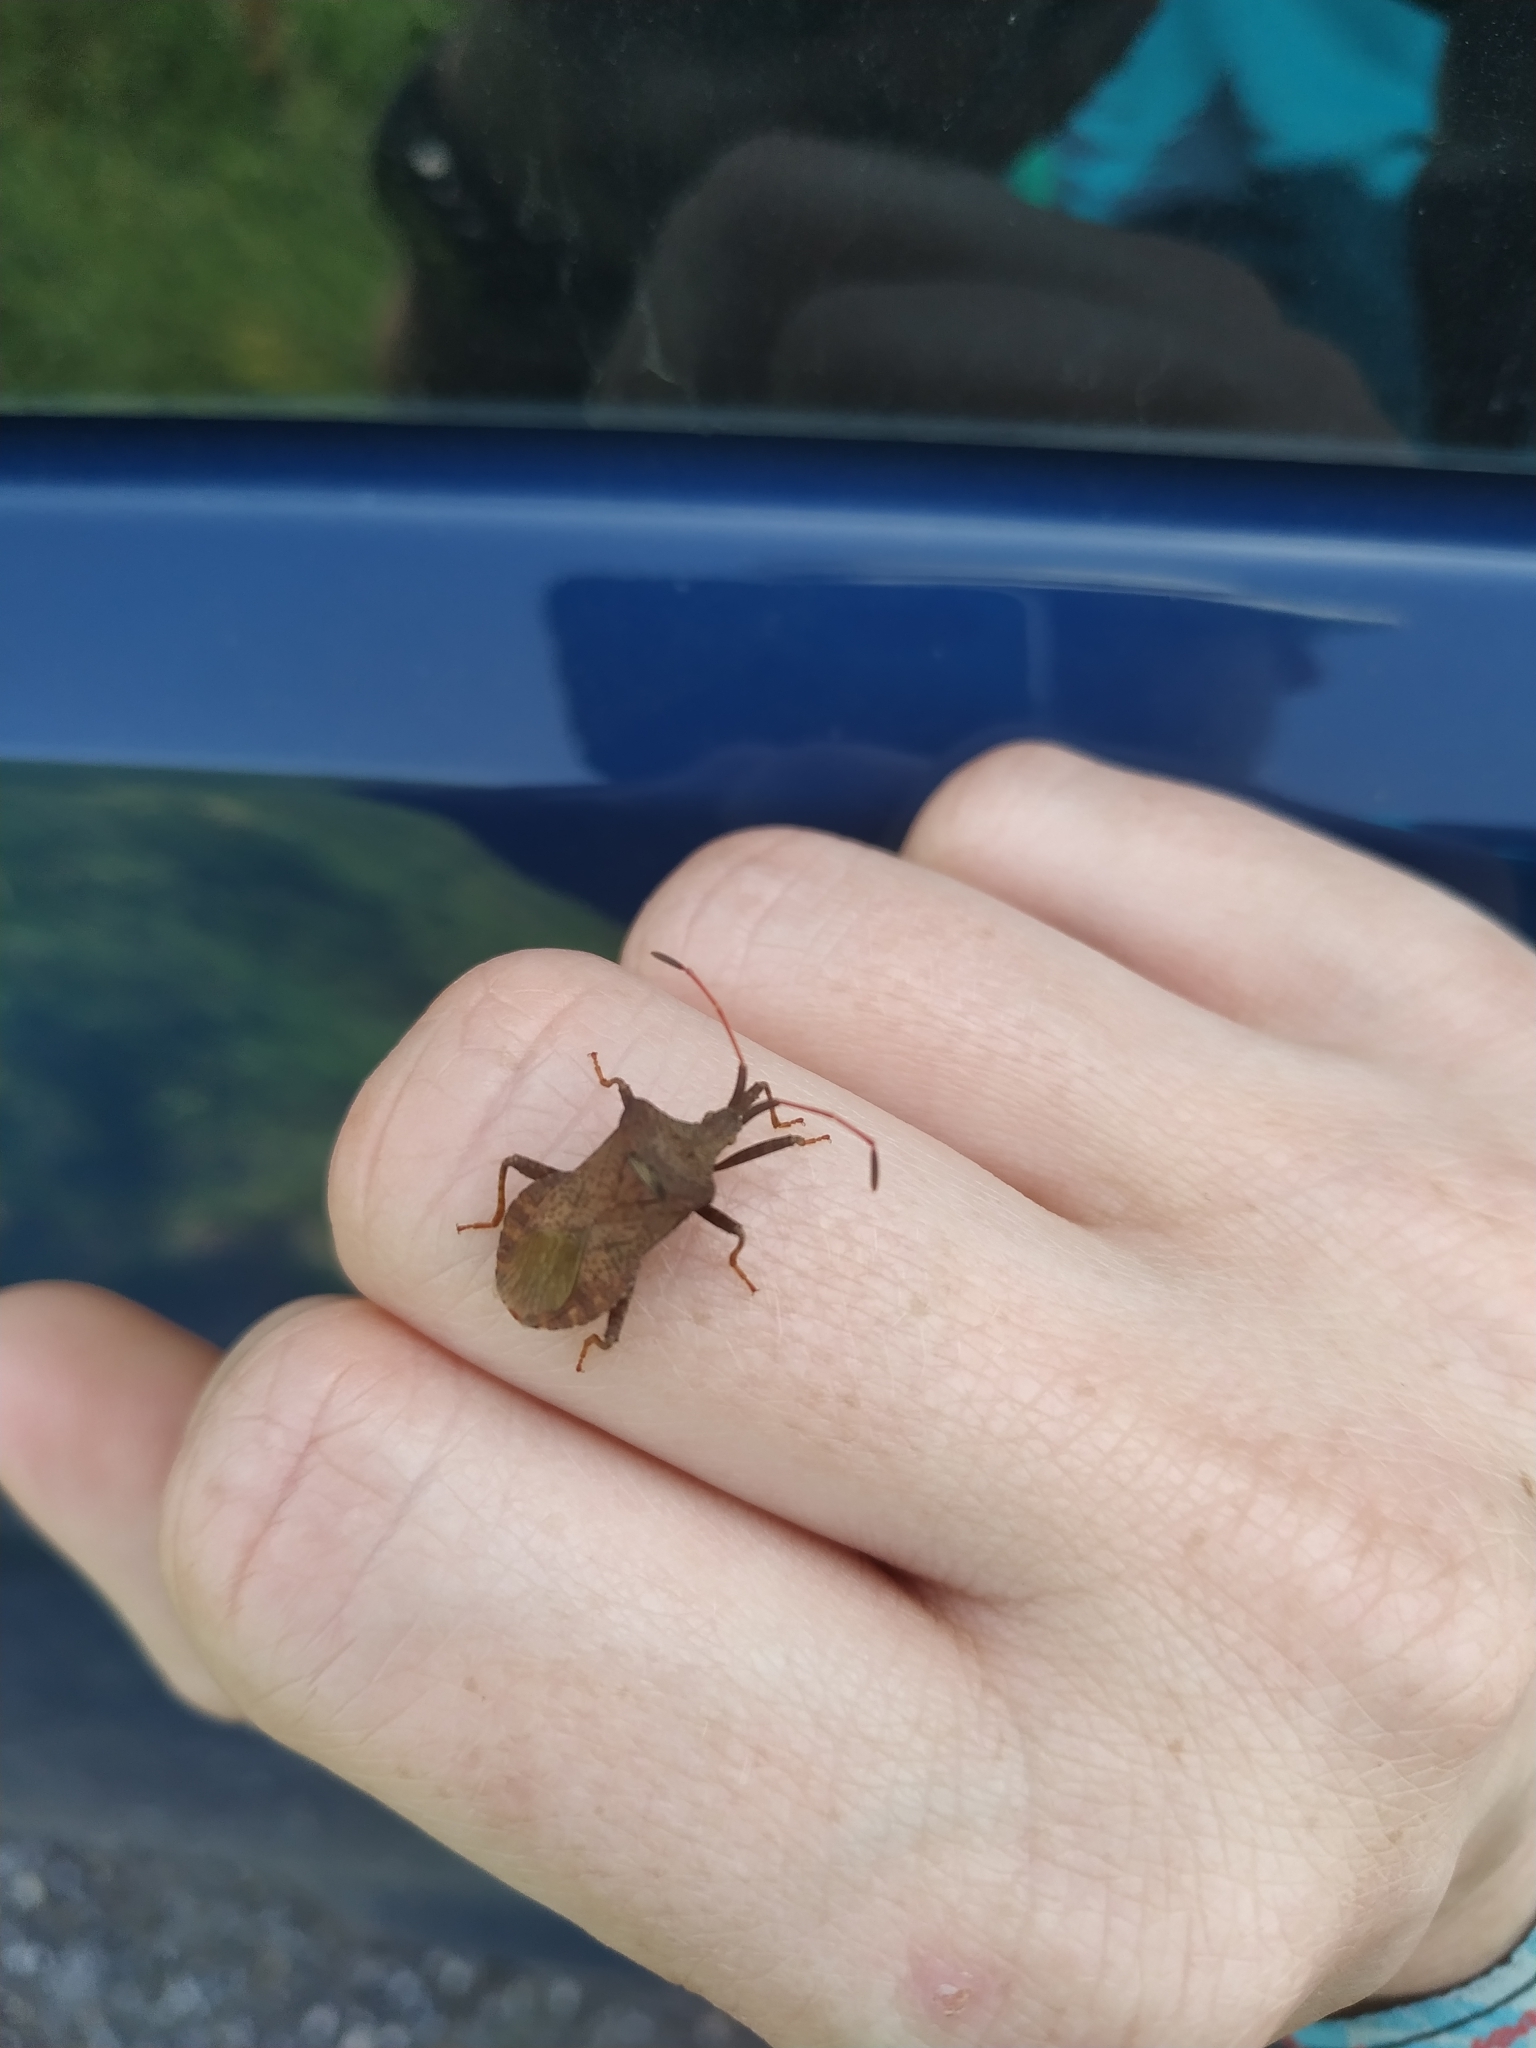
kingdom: Animalia
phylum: Arthropoda
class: Insecta
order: Hemiptera
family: Coreidae
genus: Coreus
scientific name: Coreus marginatus
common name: Dock bug
